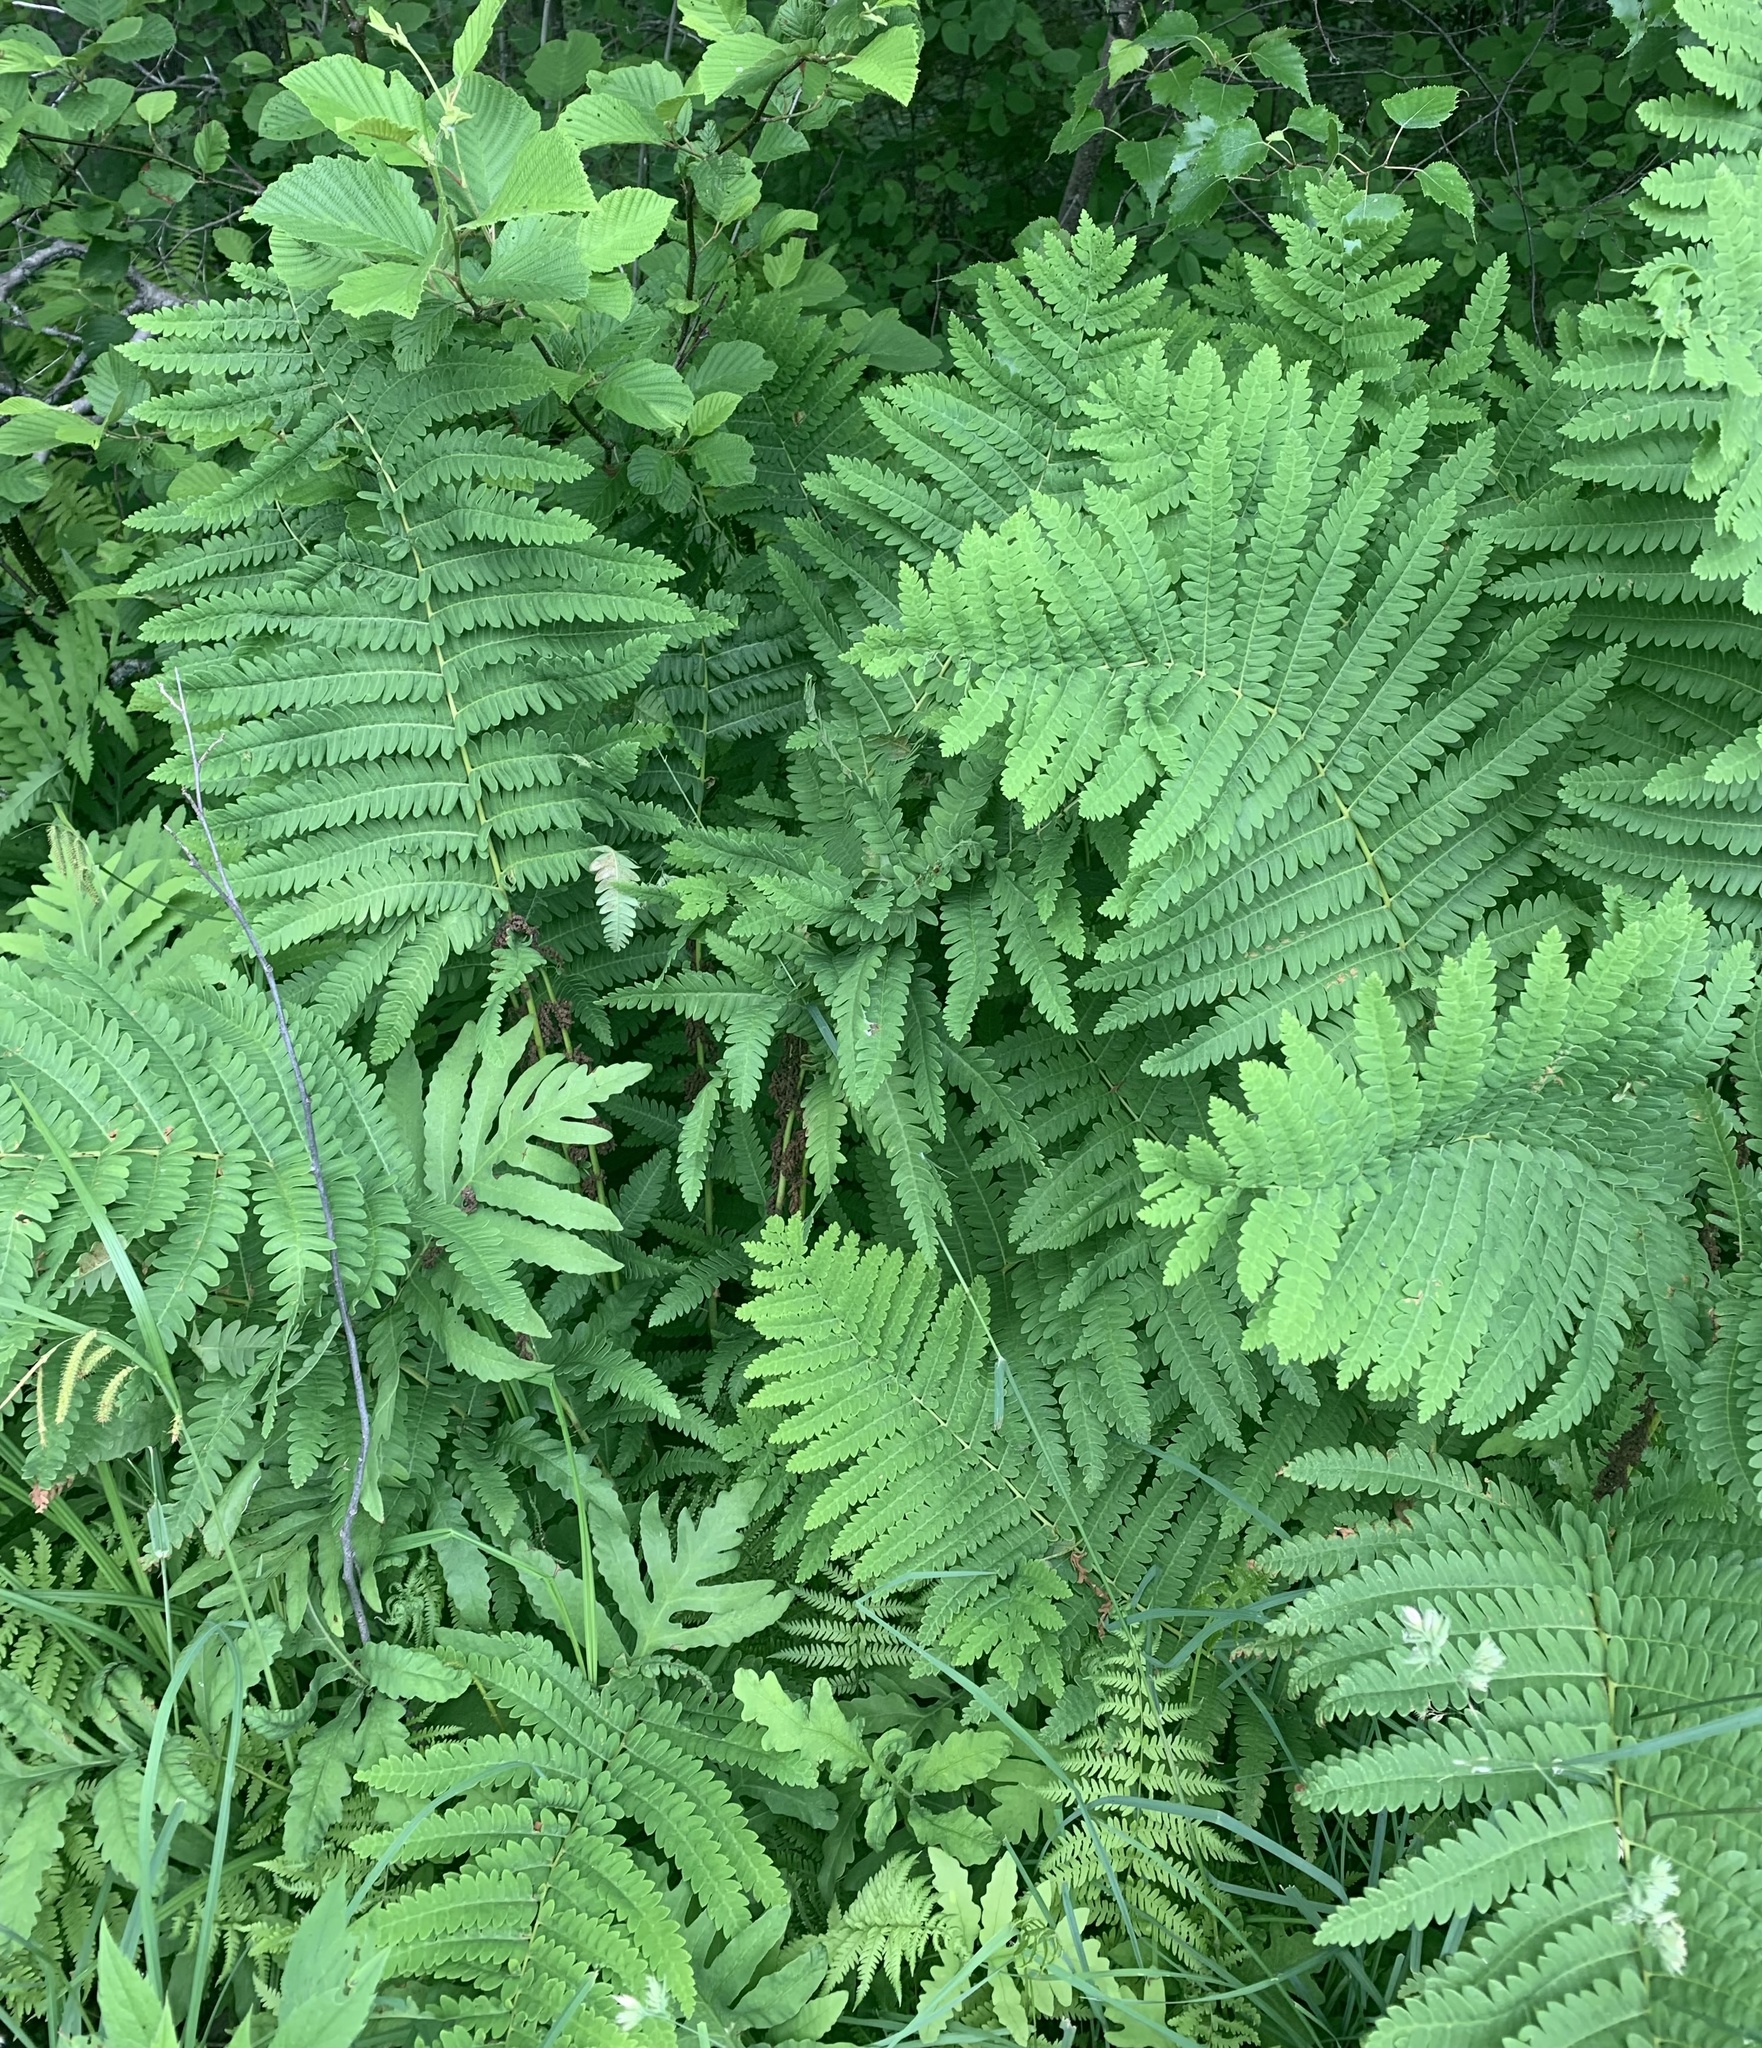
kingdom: Plantae
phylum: Tracheophyta
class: Polypodiopsida
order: Osmundales
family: Osmundaceae
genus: Claytosmunda
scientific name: Claytosmunda claytoniana
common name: Clayton's fern
